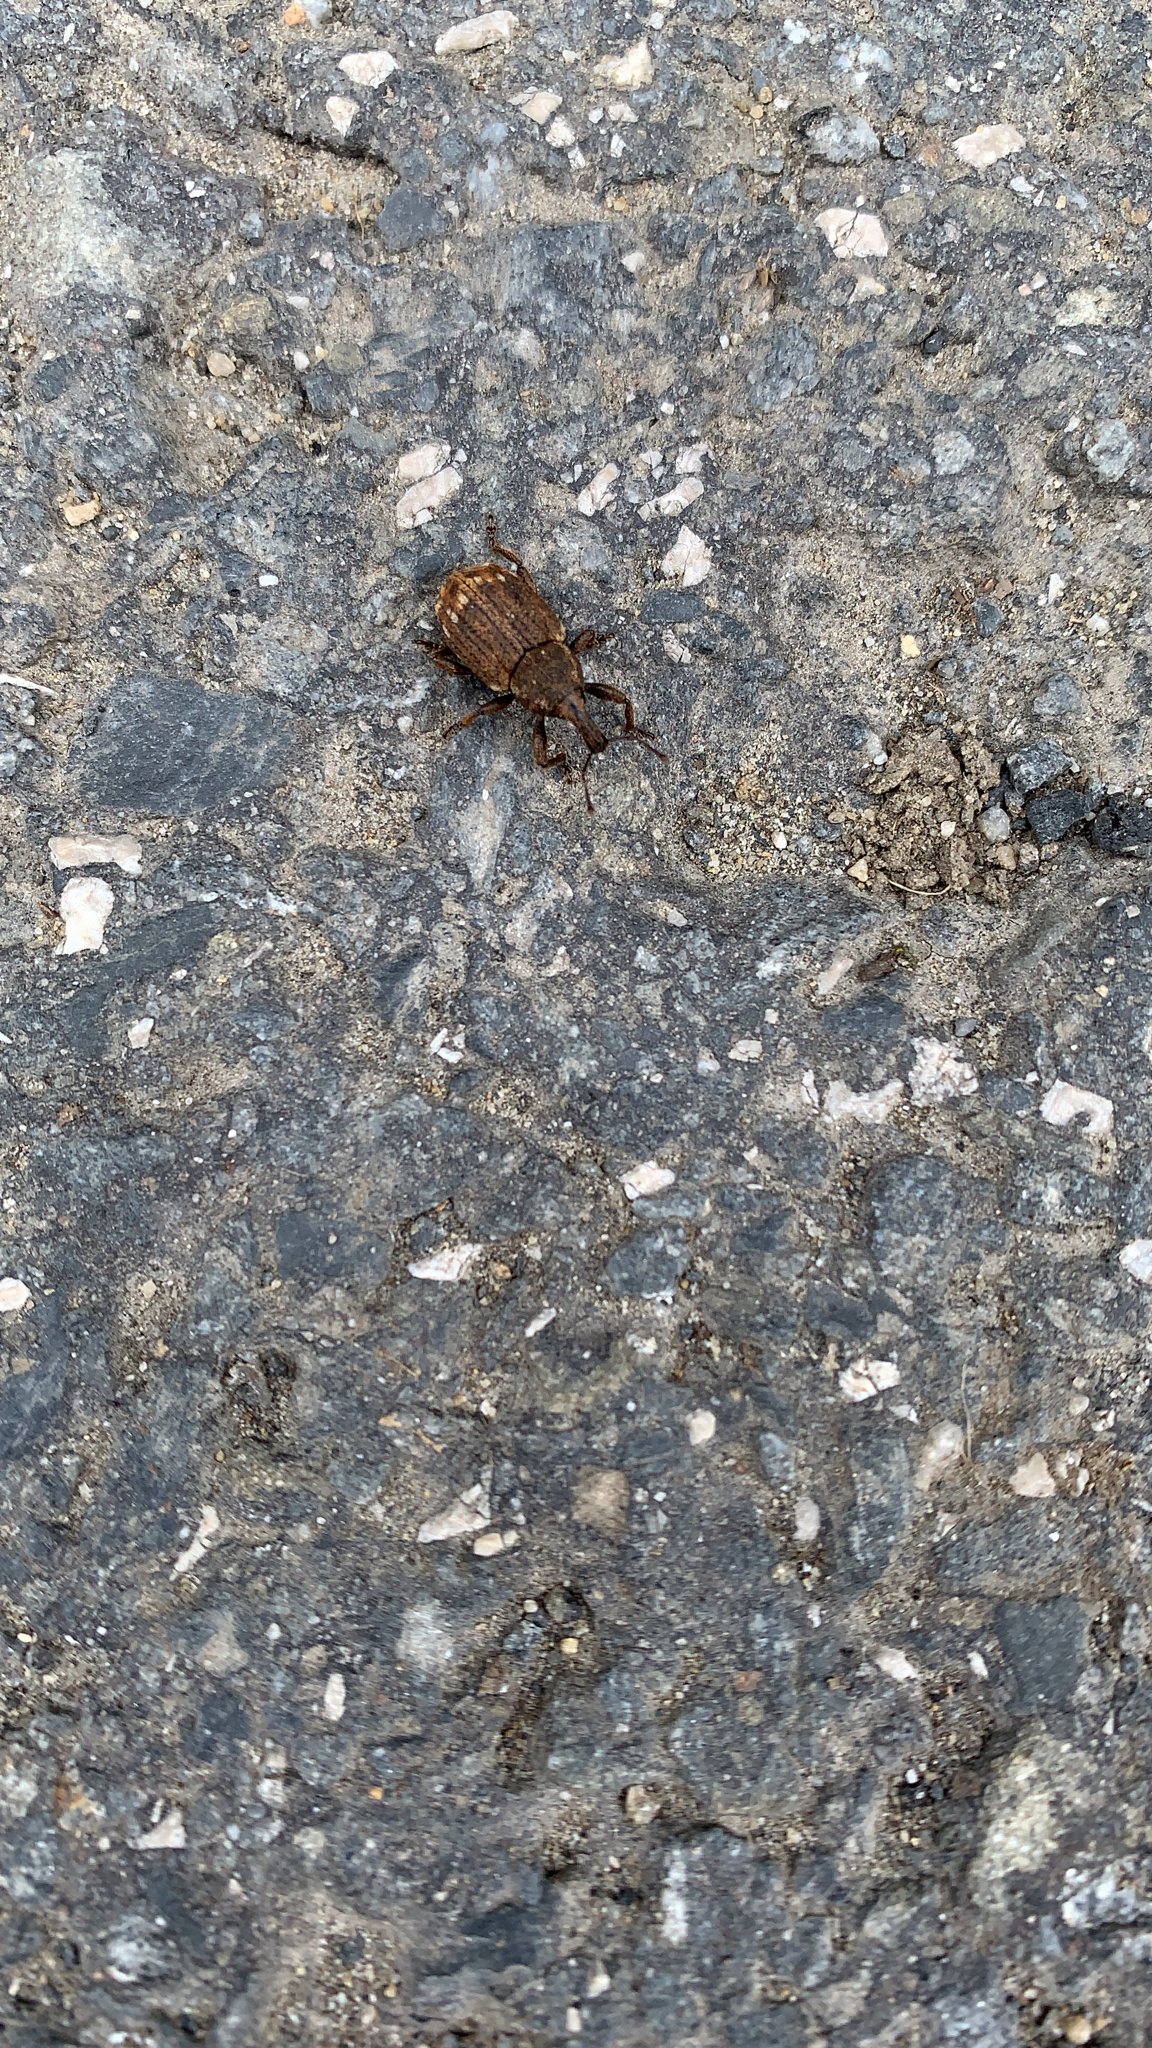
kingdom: Animalia
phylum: Arthropoda
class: Insecta
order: Coleoptera
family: Curculionidae
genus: Plinthus
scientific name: Plinthus findeli
